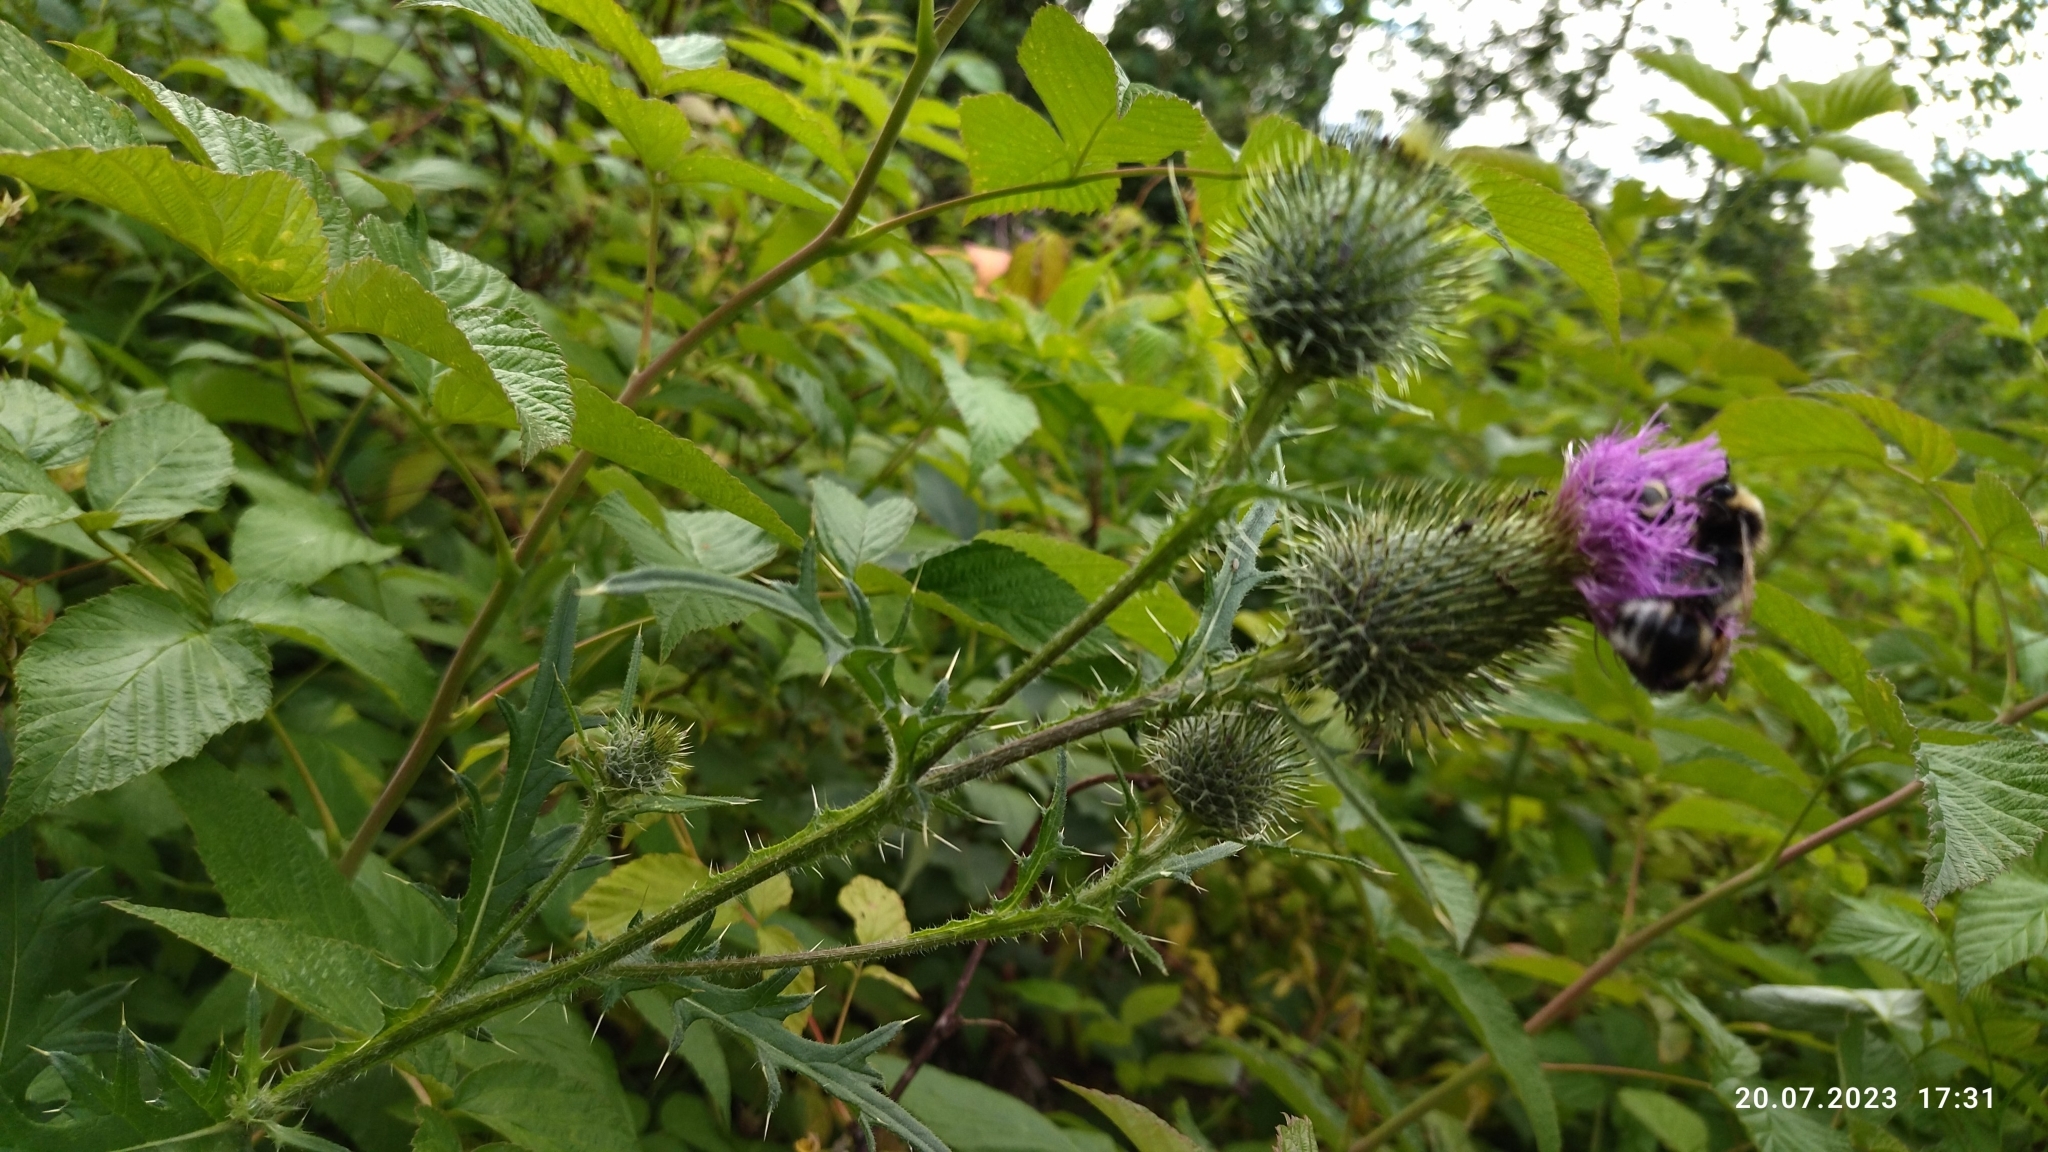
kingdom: Plantae
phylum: Tracheophyta
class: Magnoliopsida
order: Asterales
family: Asteraceae
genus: Cirsium
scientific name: Cirsium vulgare
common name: Bull thistle
